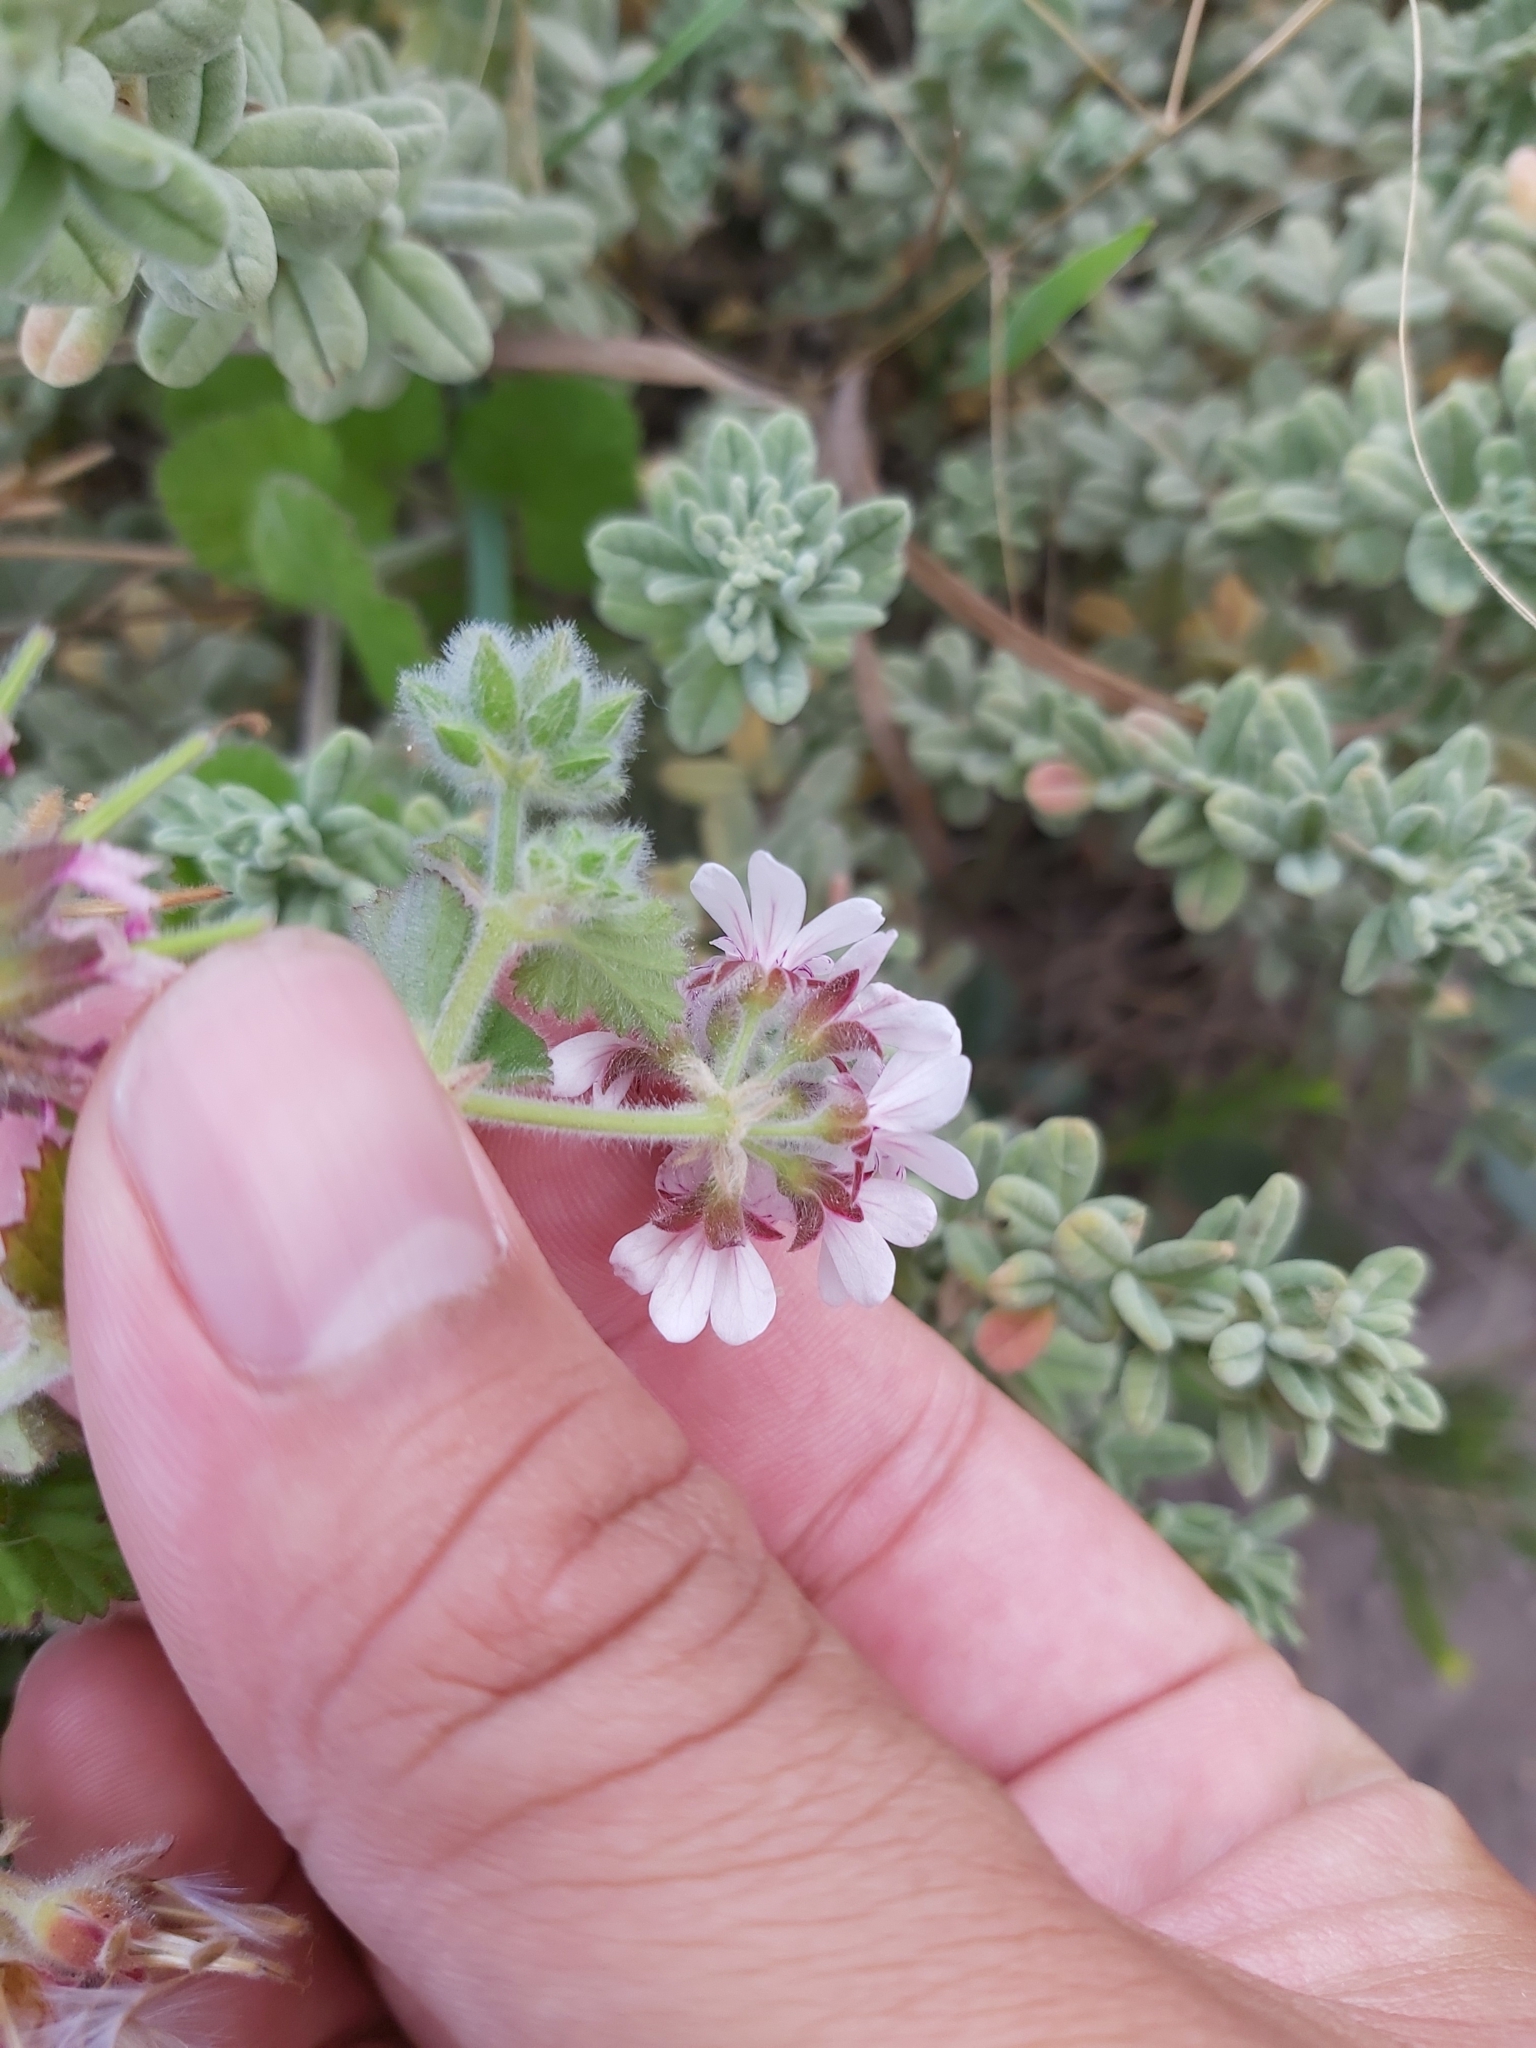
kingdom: Plantae
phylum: Tracheophyta
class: Magnoliopsida
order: Geraniales
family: Geraniaceae
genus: Pelargonium
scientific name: Pelargonium australe
